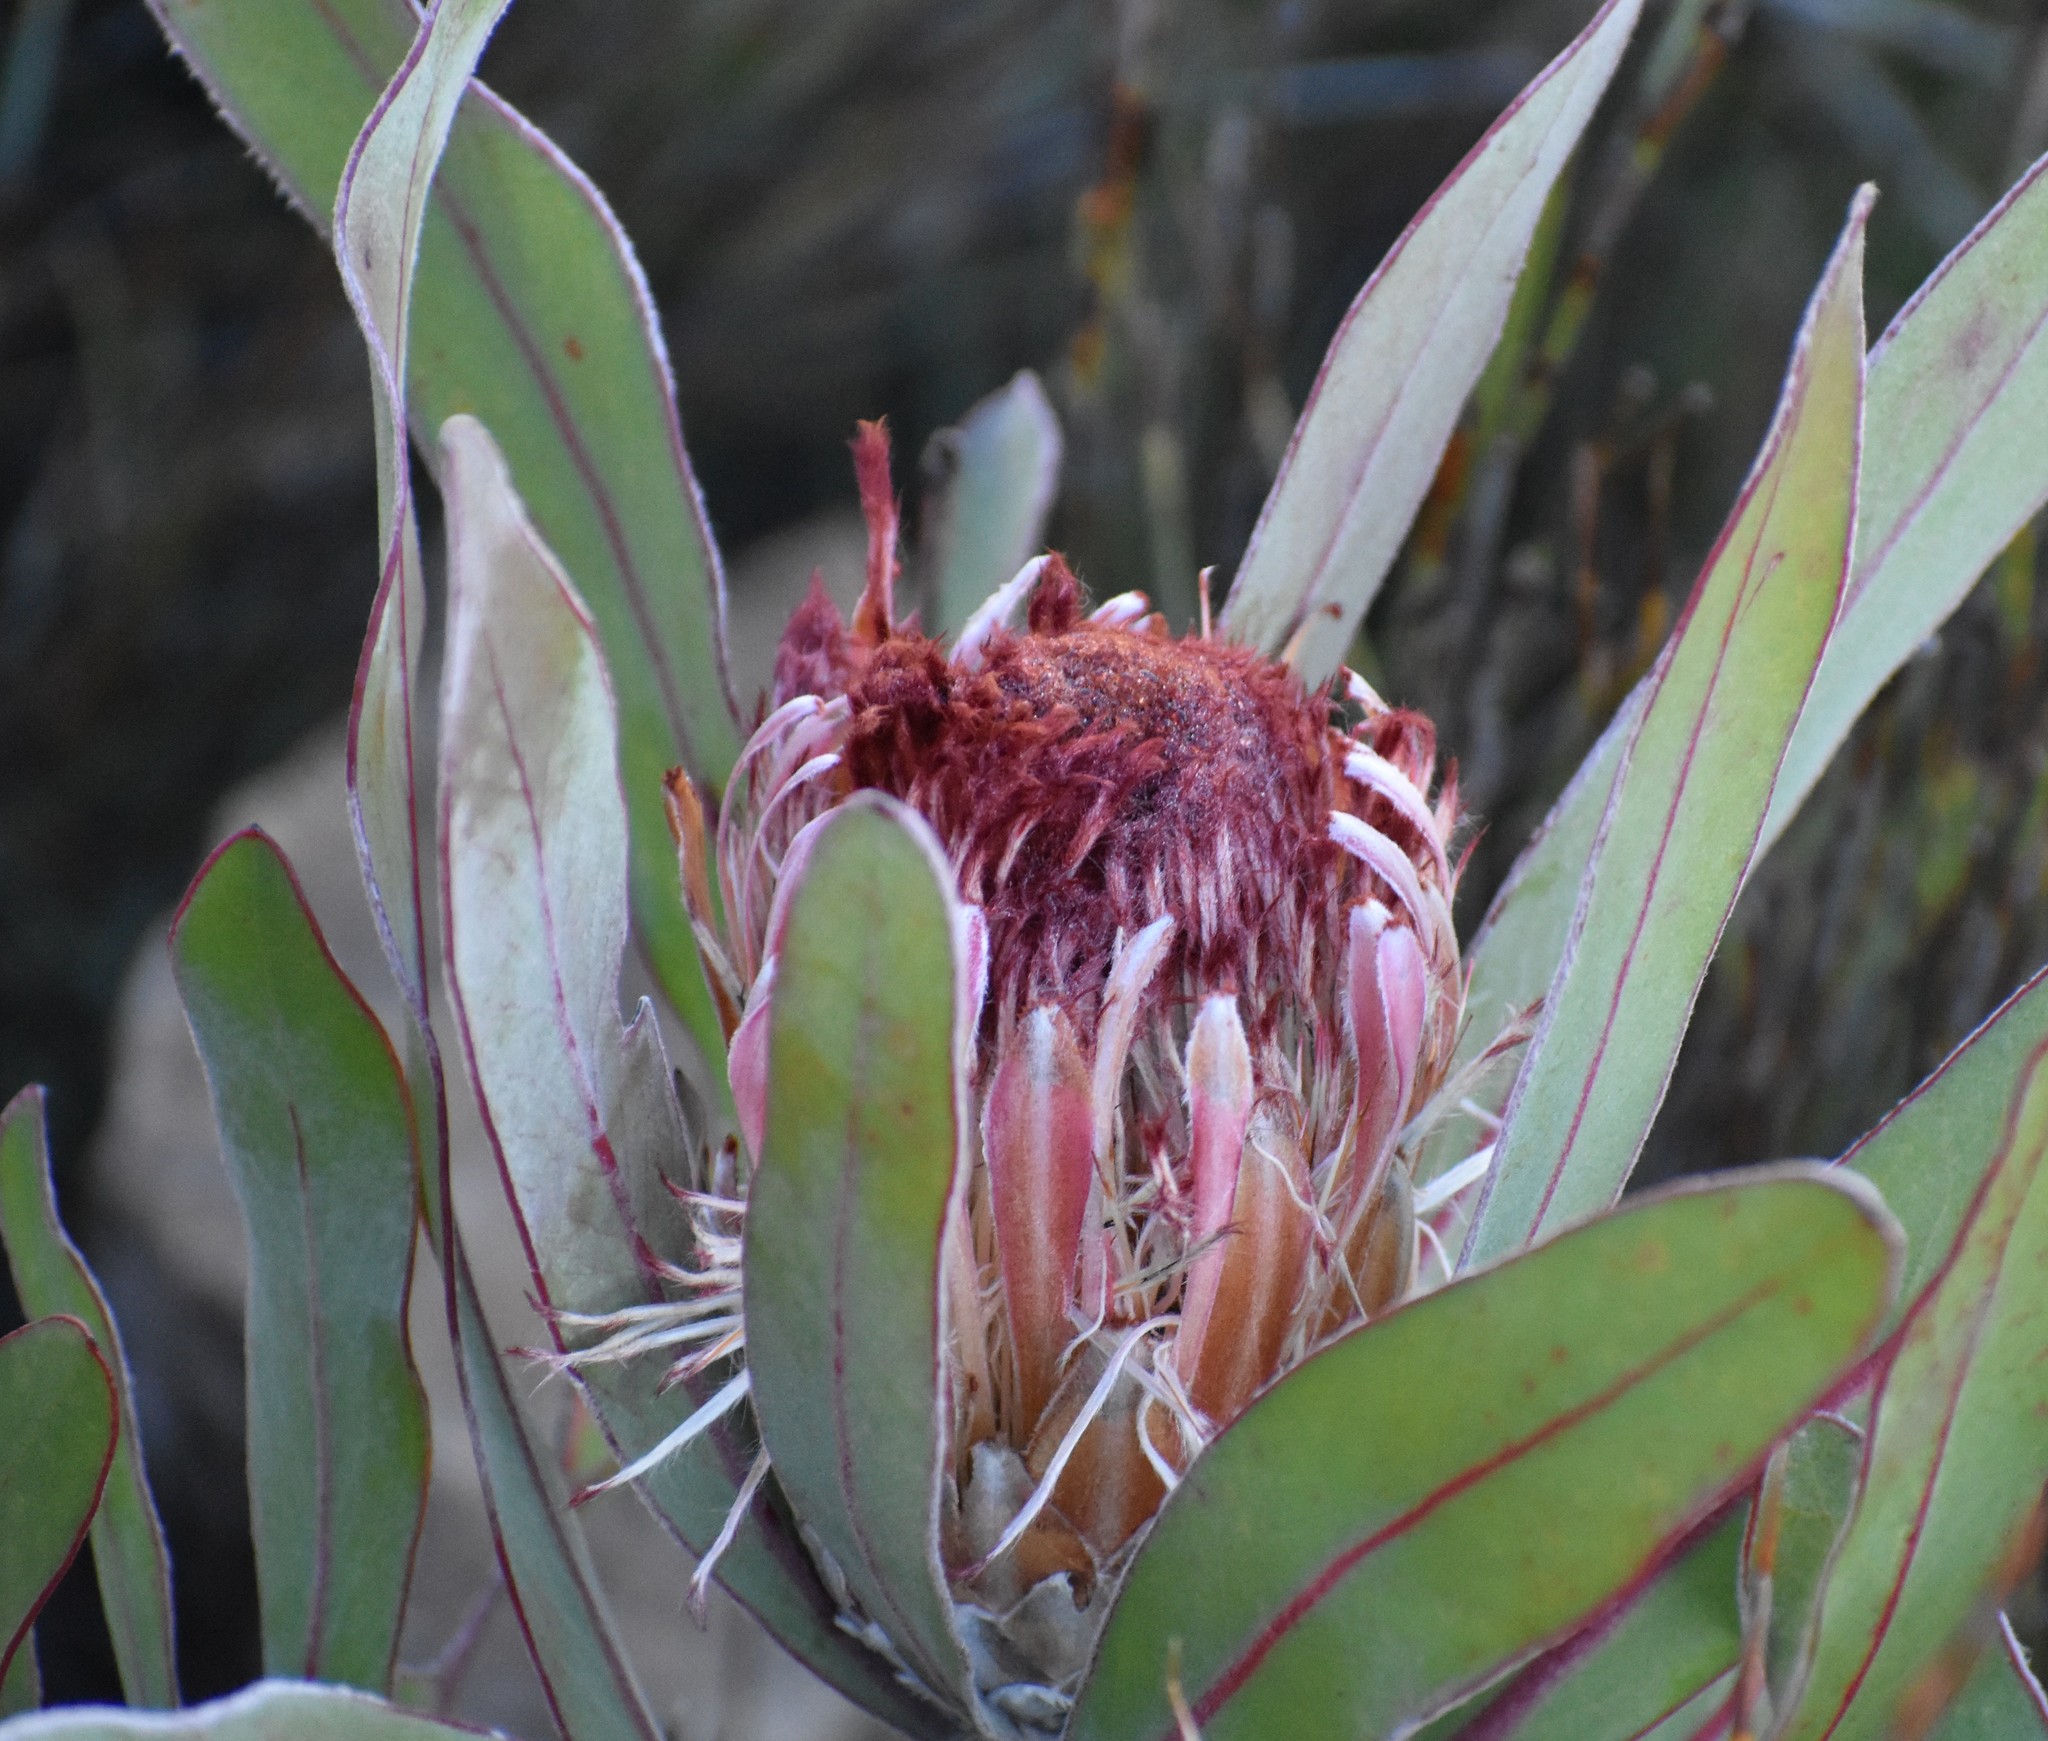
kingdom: Plantae
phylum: Tracheophyta
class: Magnoliopsida
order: Proteales
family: Proteaceae
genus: Protea
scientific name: Protea lorifolia
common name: Strap-leaved protea
